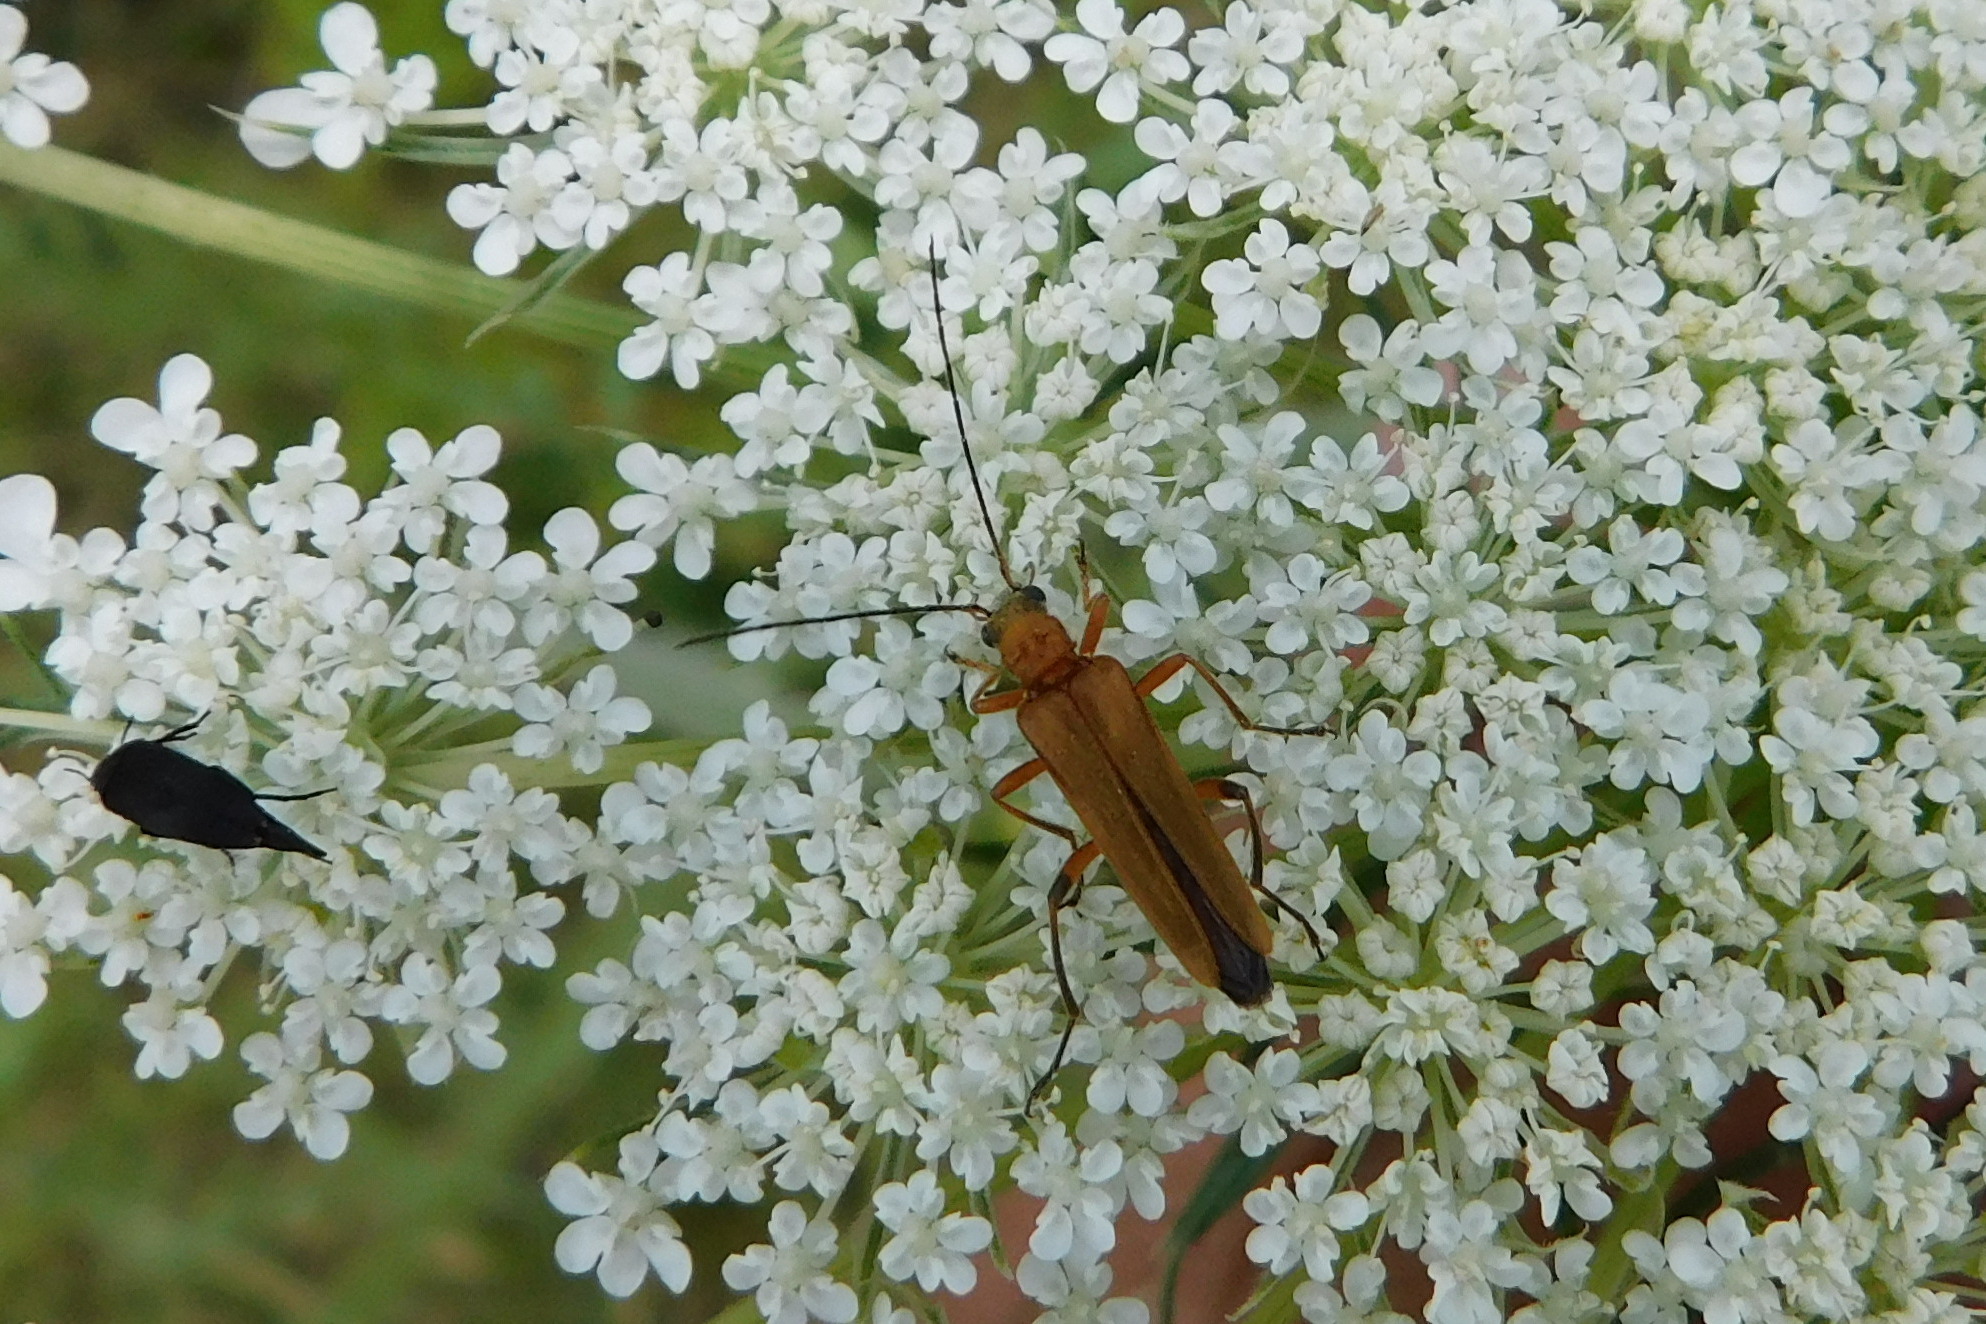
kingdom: Animalia
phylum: Arthropoda
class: Insecta
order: Coleoptera
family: Oedemeridae
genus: Oedemera
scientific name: Oedemera podagrariae
